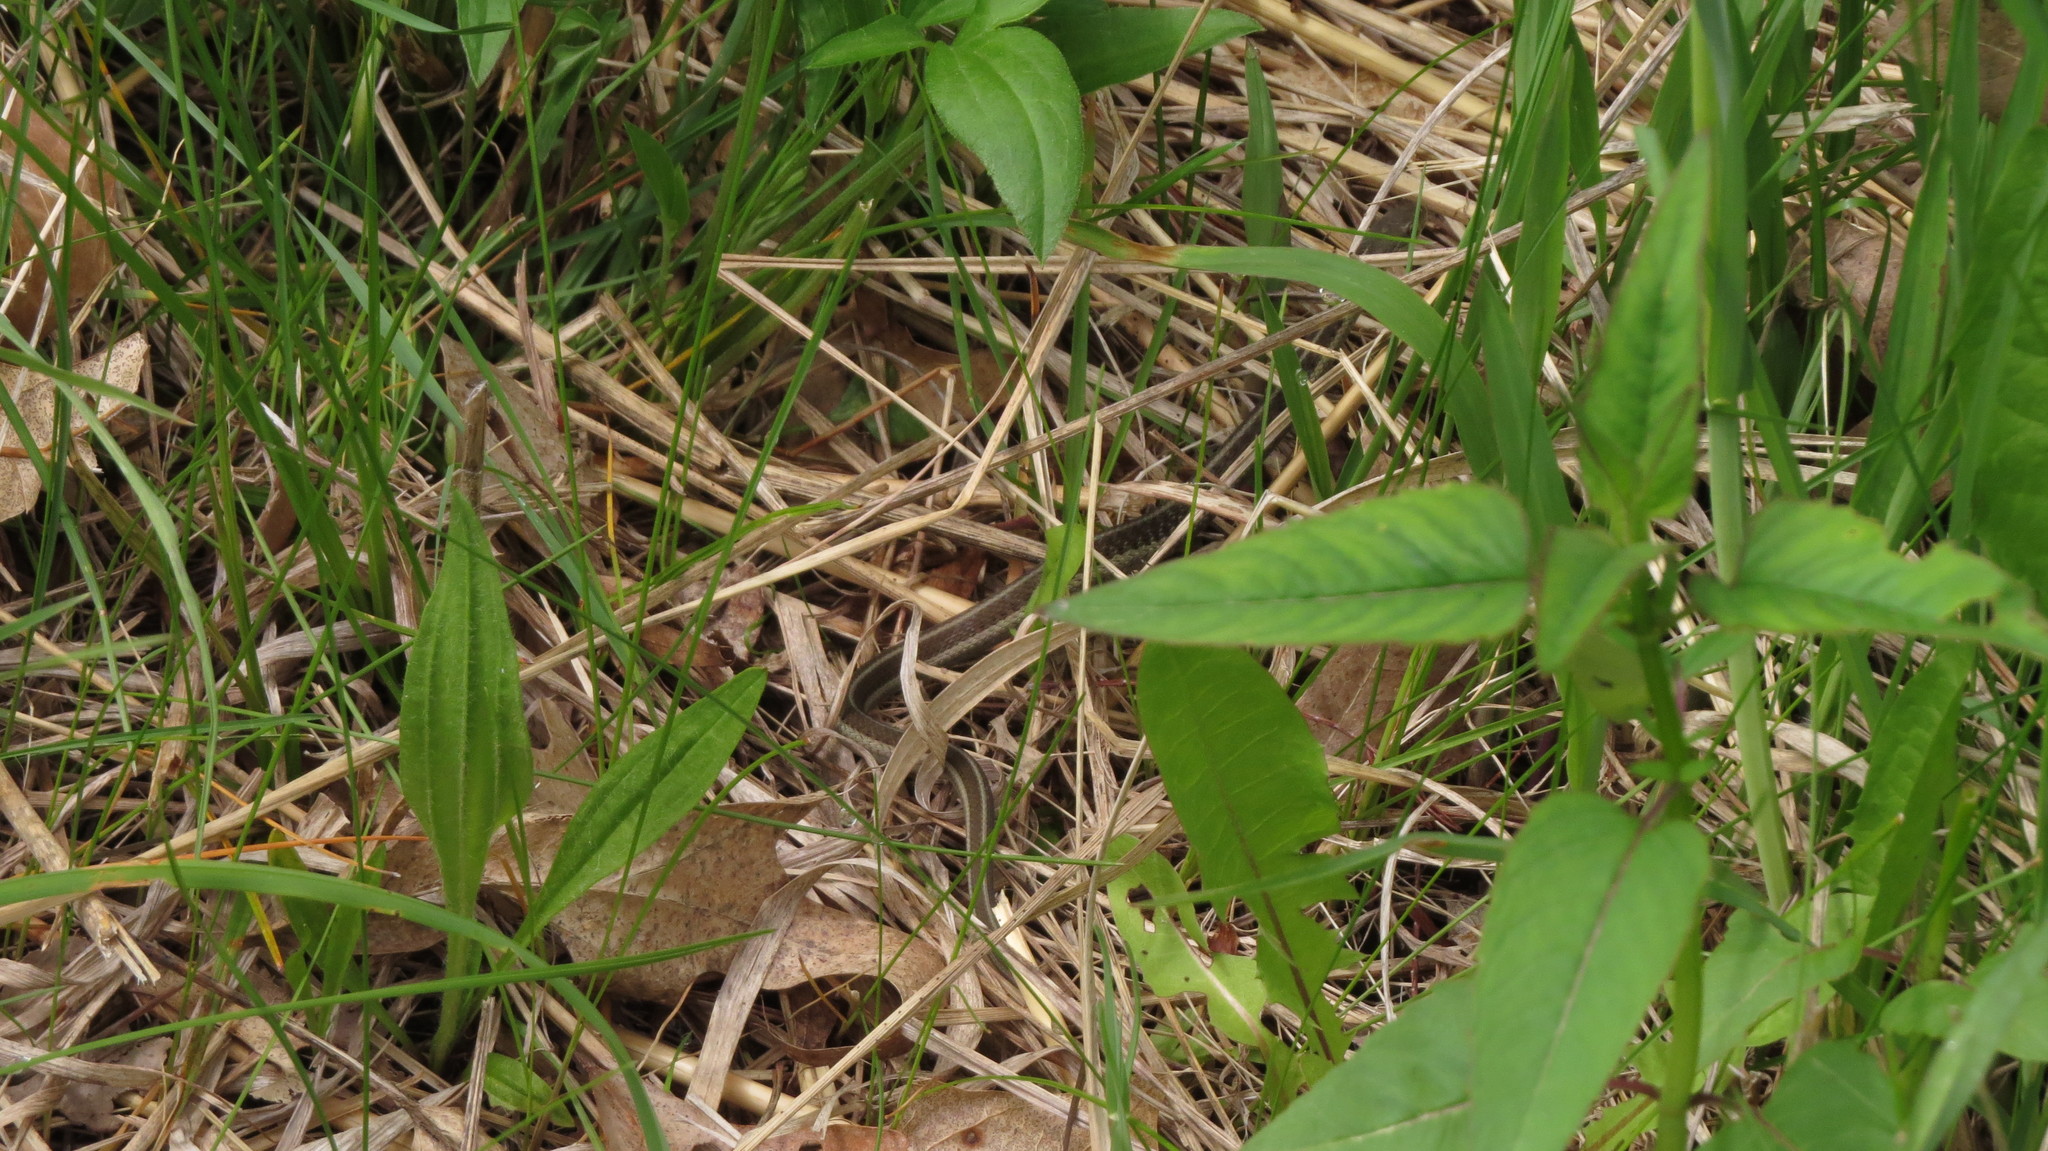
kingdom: Animalia
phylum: Chordata
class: Squamata
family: Colubridae
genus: Thamnophis
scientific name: Thamnophis sirtalis
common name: Common garter snake
